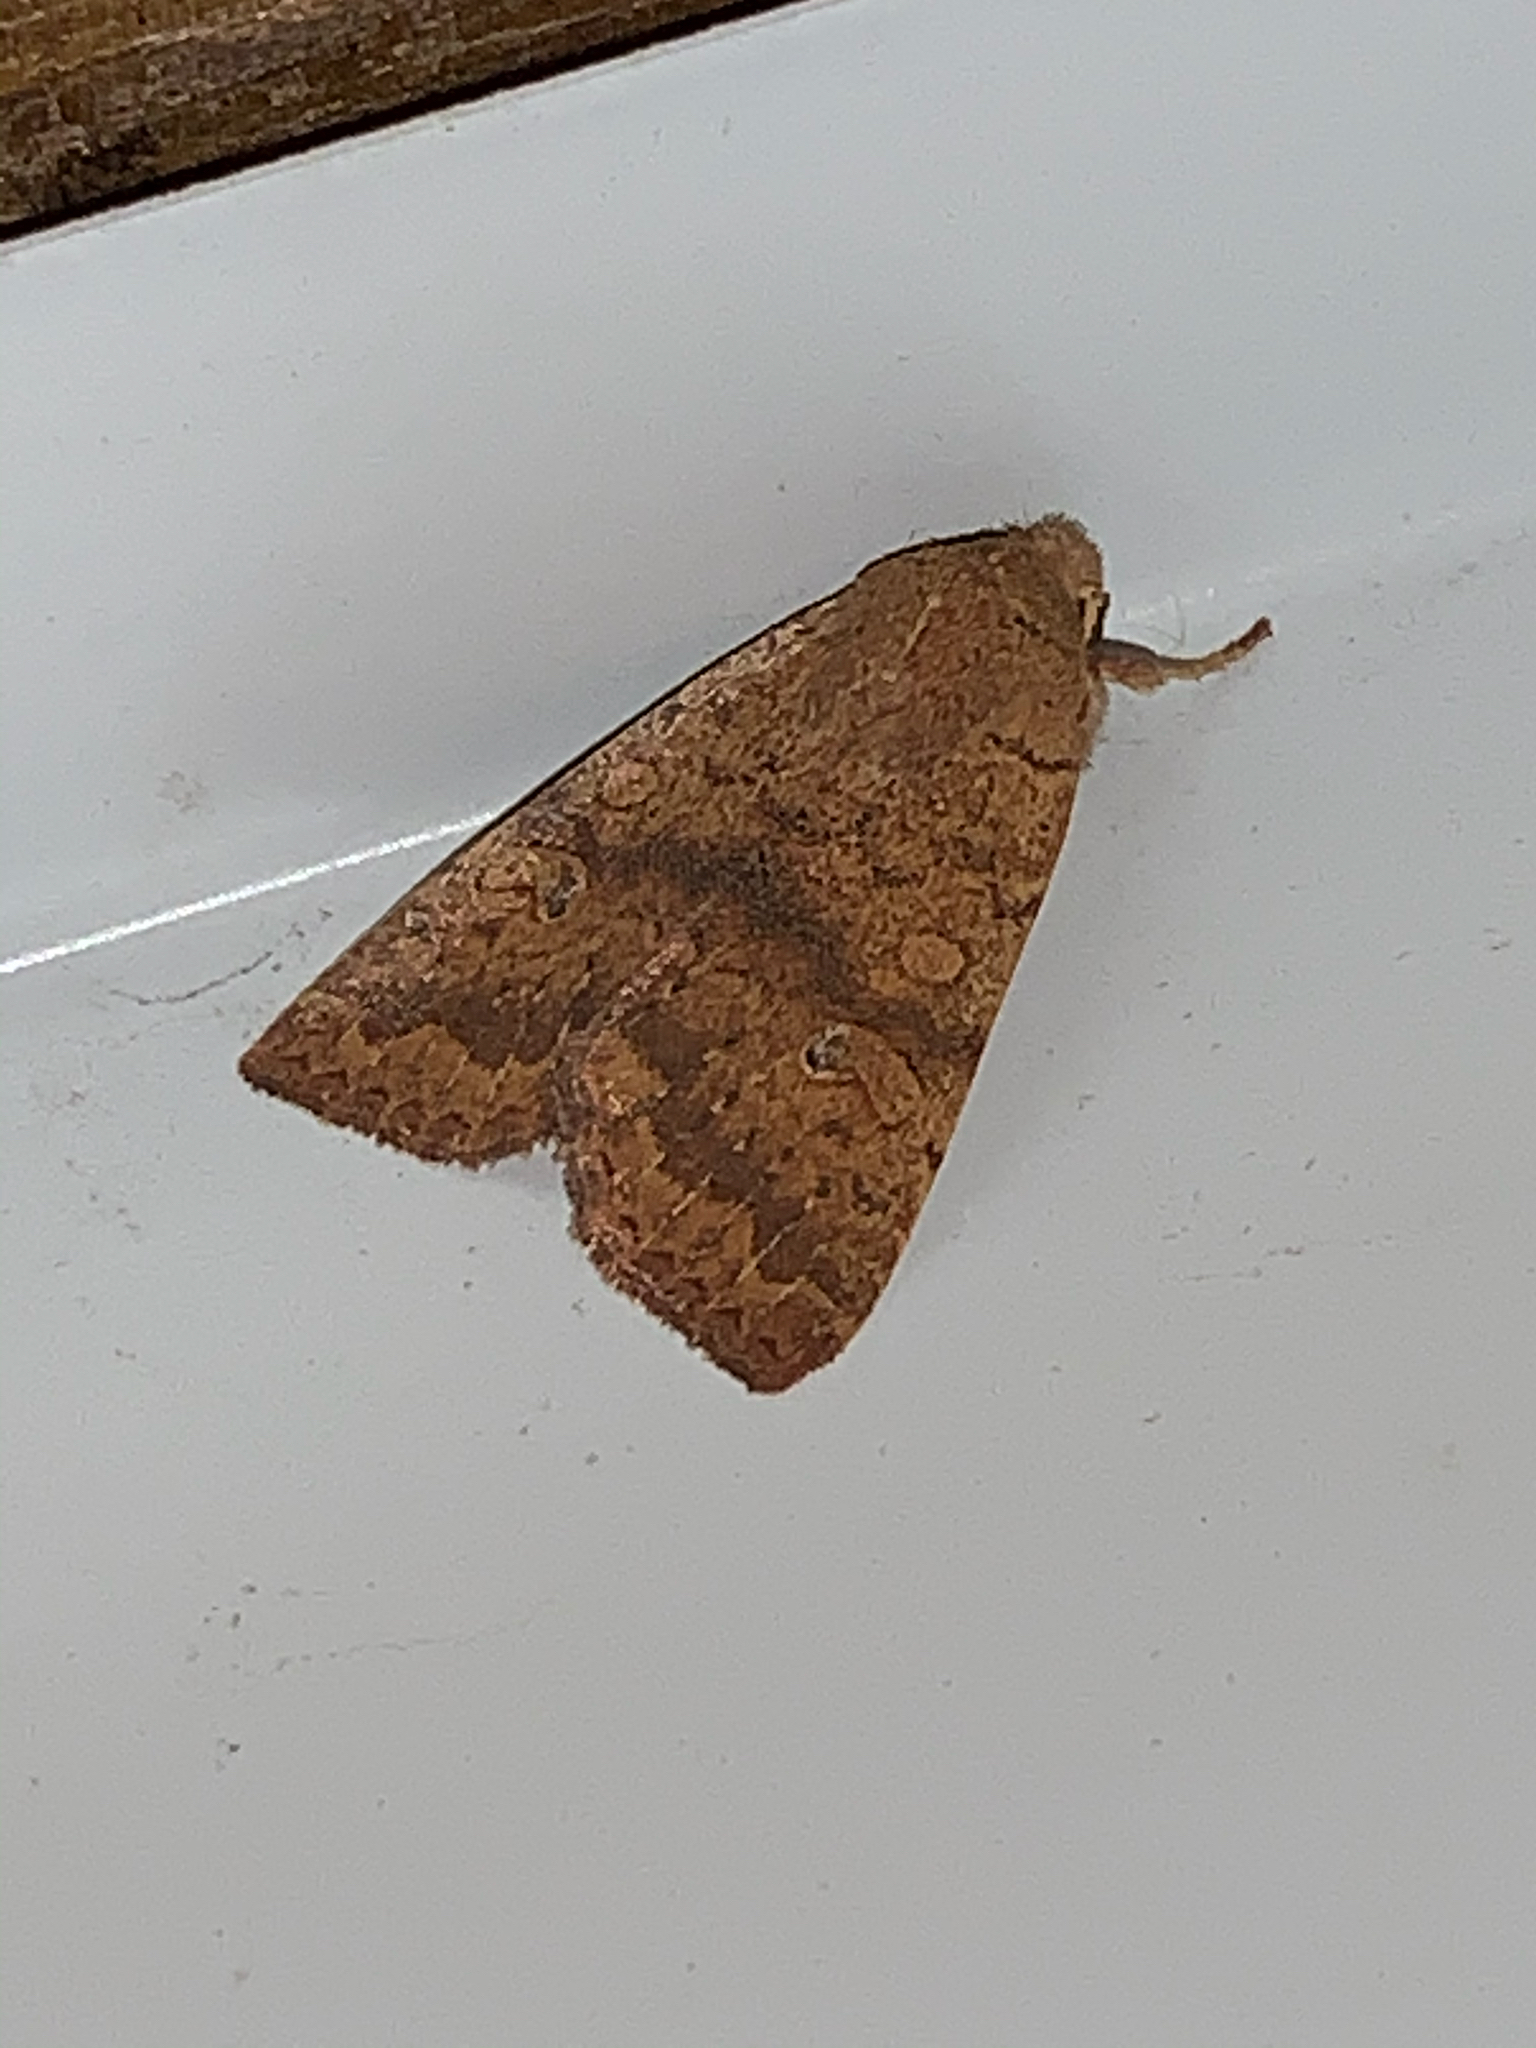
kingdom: Animalia
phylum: Arthropoda
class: Insecta
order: Lepidoptera
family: Noctuidae
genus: Agrochola
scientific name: Agrochola bicolorago
